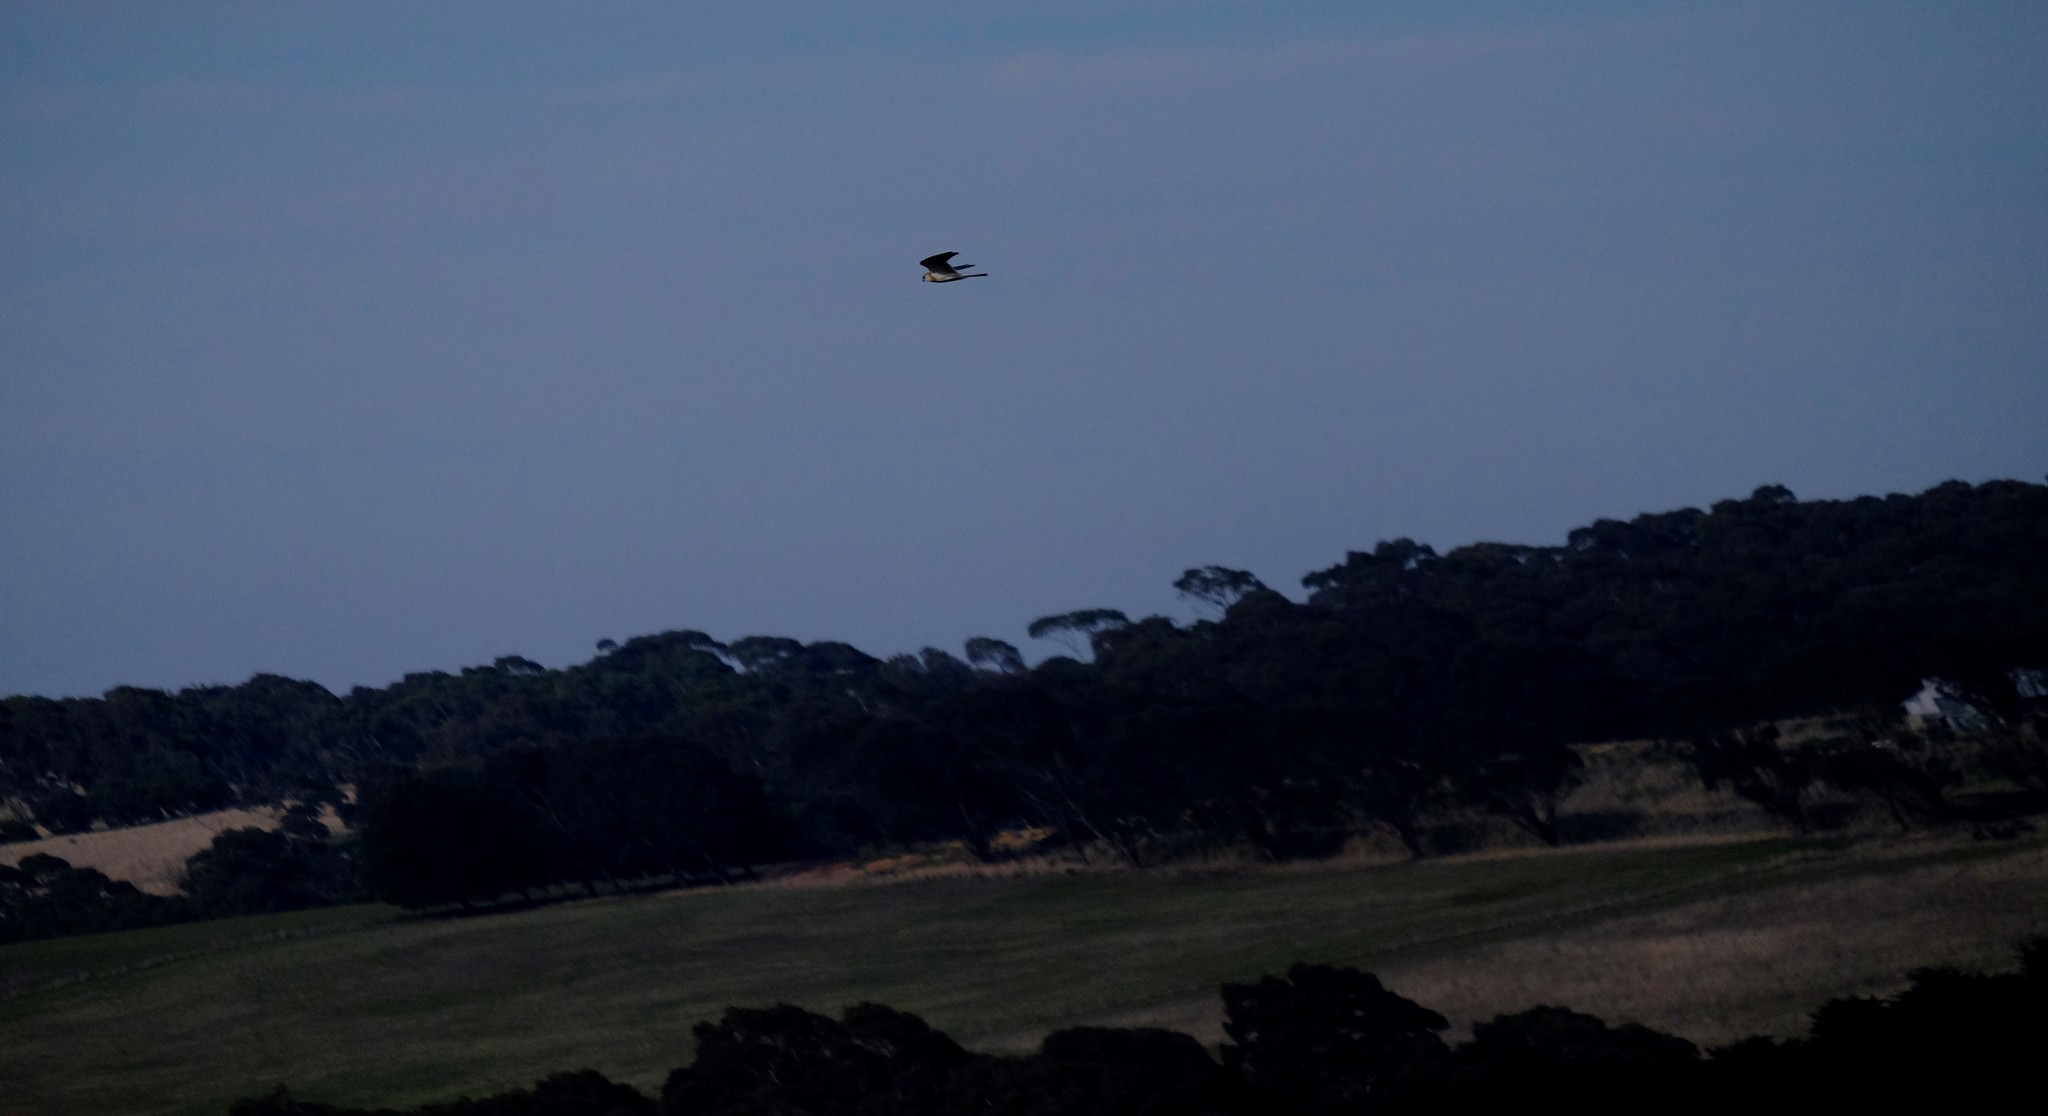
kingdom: Animalia
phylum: Chordata
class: Aves
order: Accipitriformes
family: Accipitridae
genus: Elanus
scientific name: Elanus axillaris
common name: Black-shouldered kite
